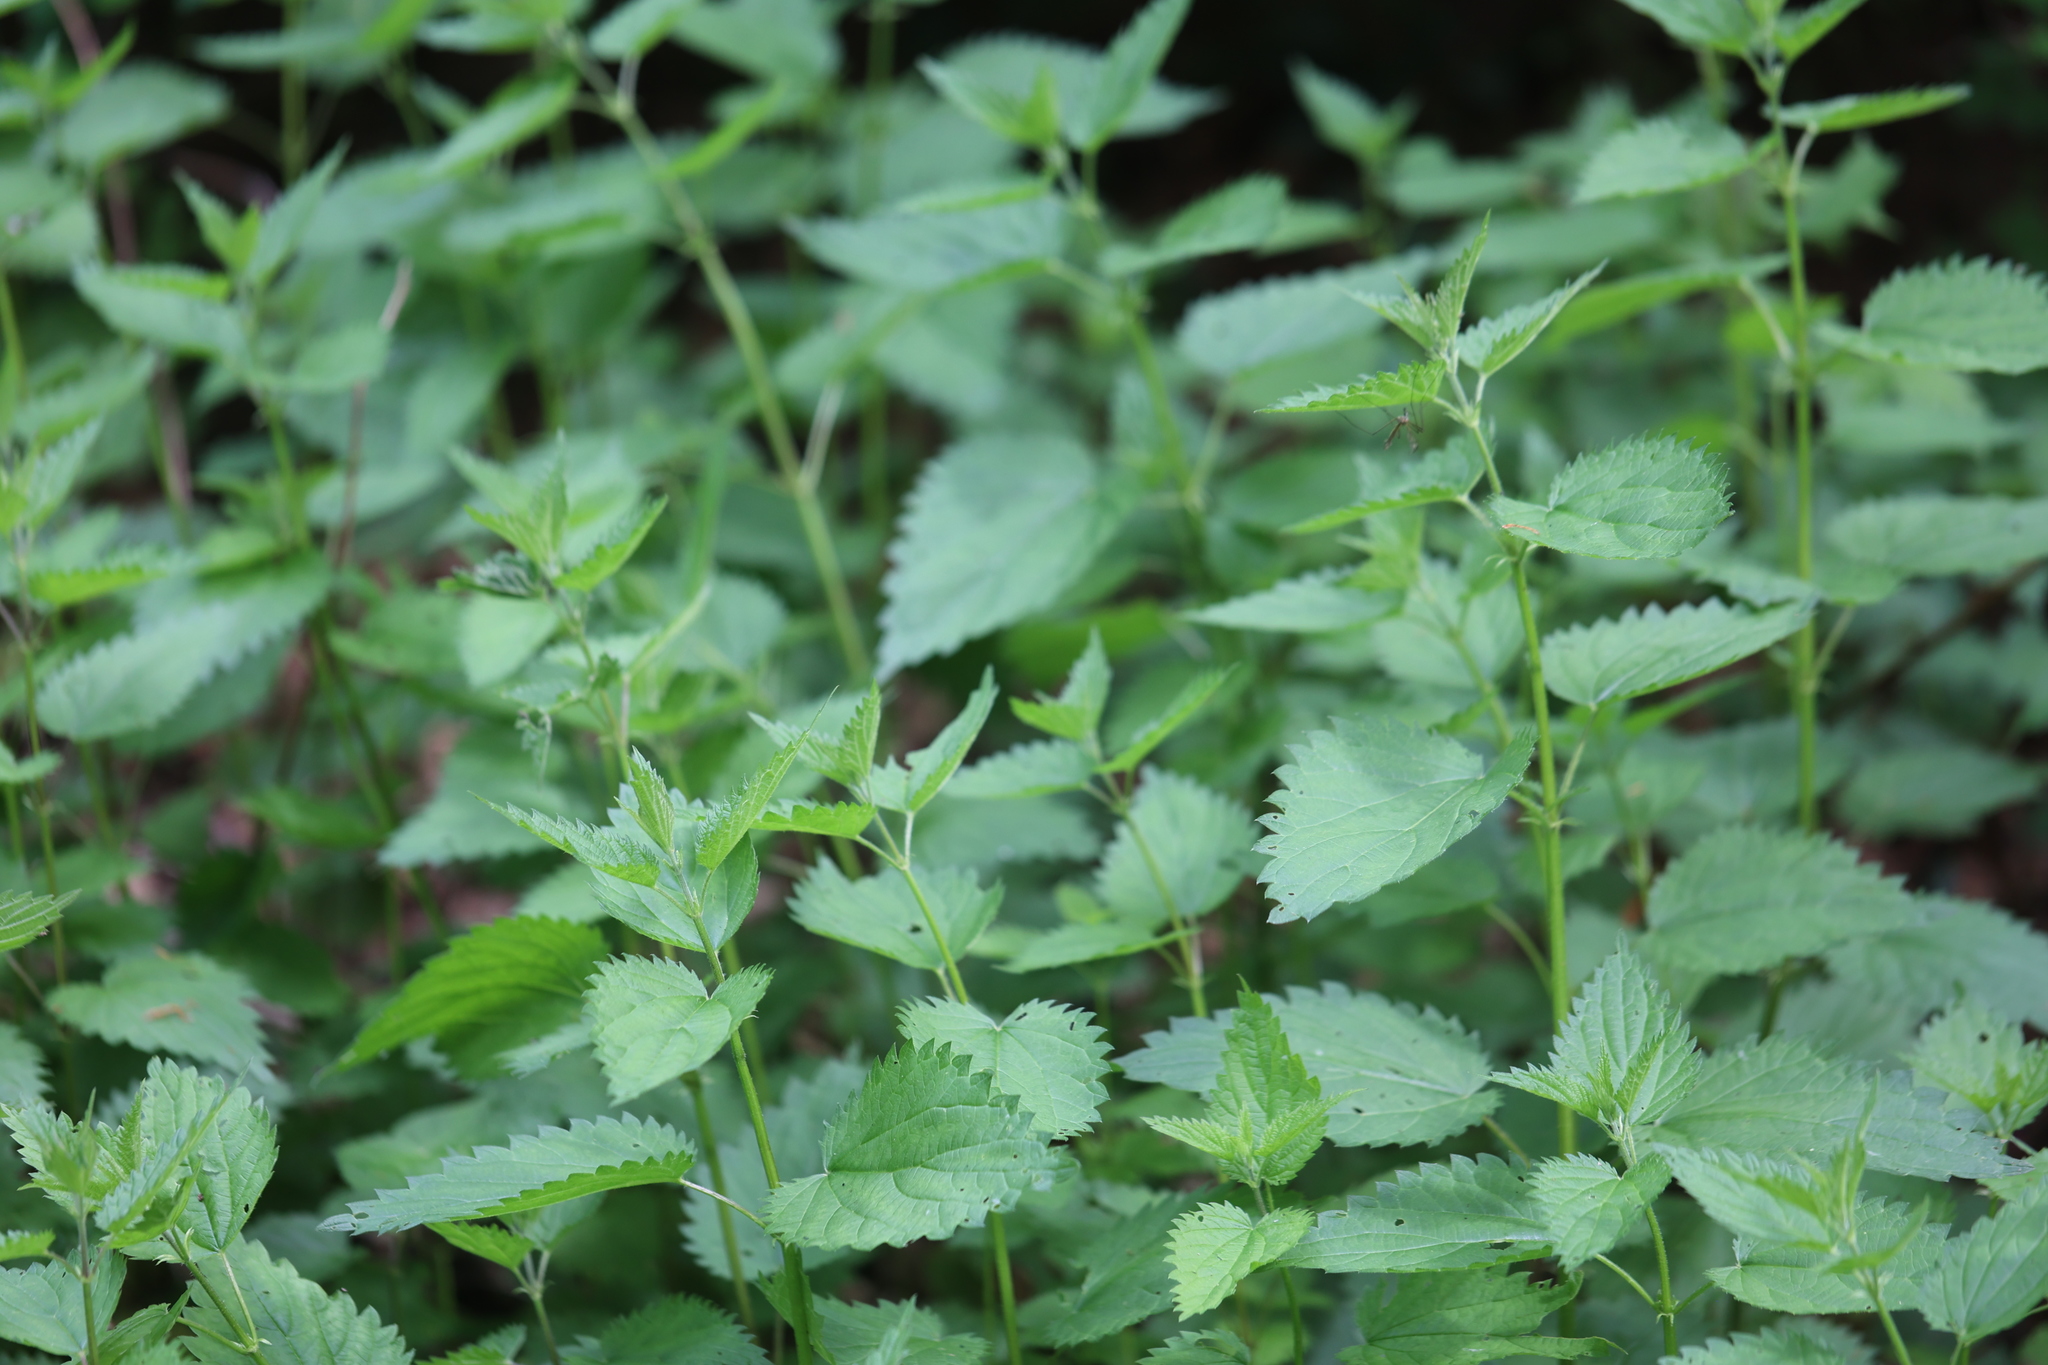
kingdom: Plantae
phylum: Tracheophyta
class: Magnoliopsida
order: Rosales
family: Urticaceae
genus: Urtica
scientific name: Urtica dioica
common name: Common nettle
